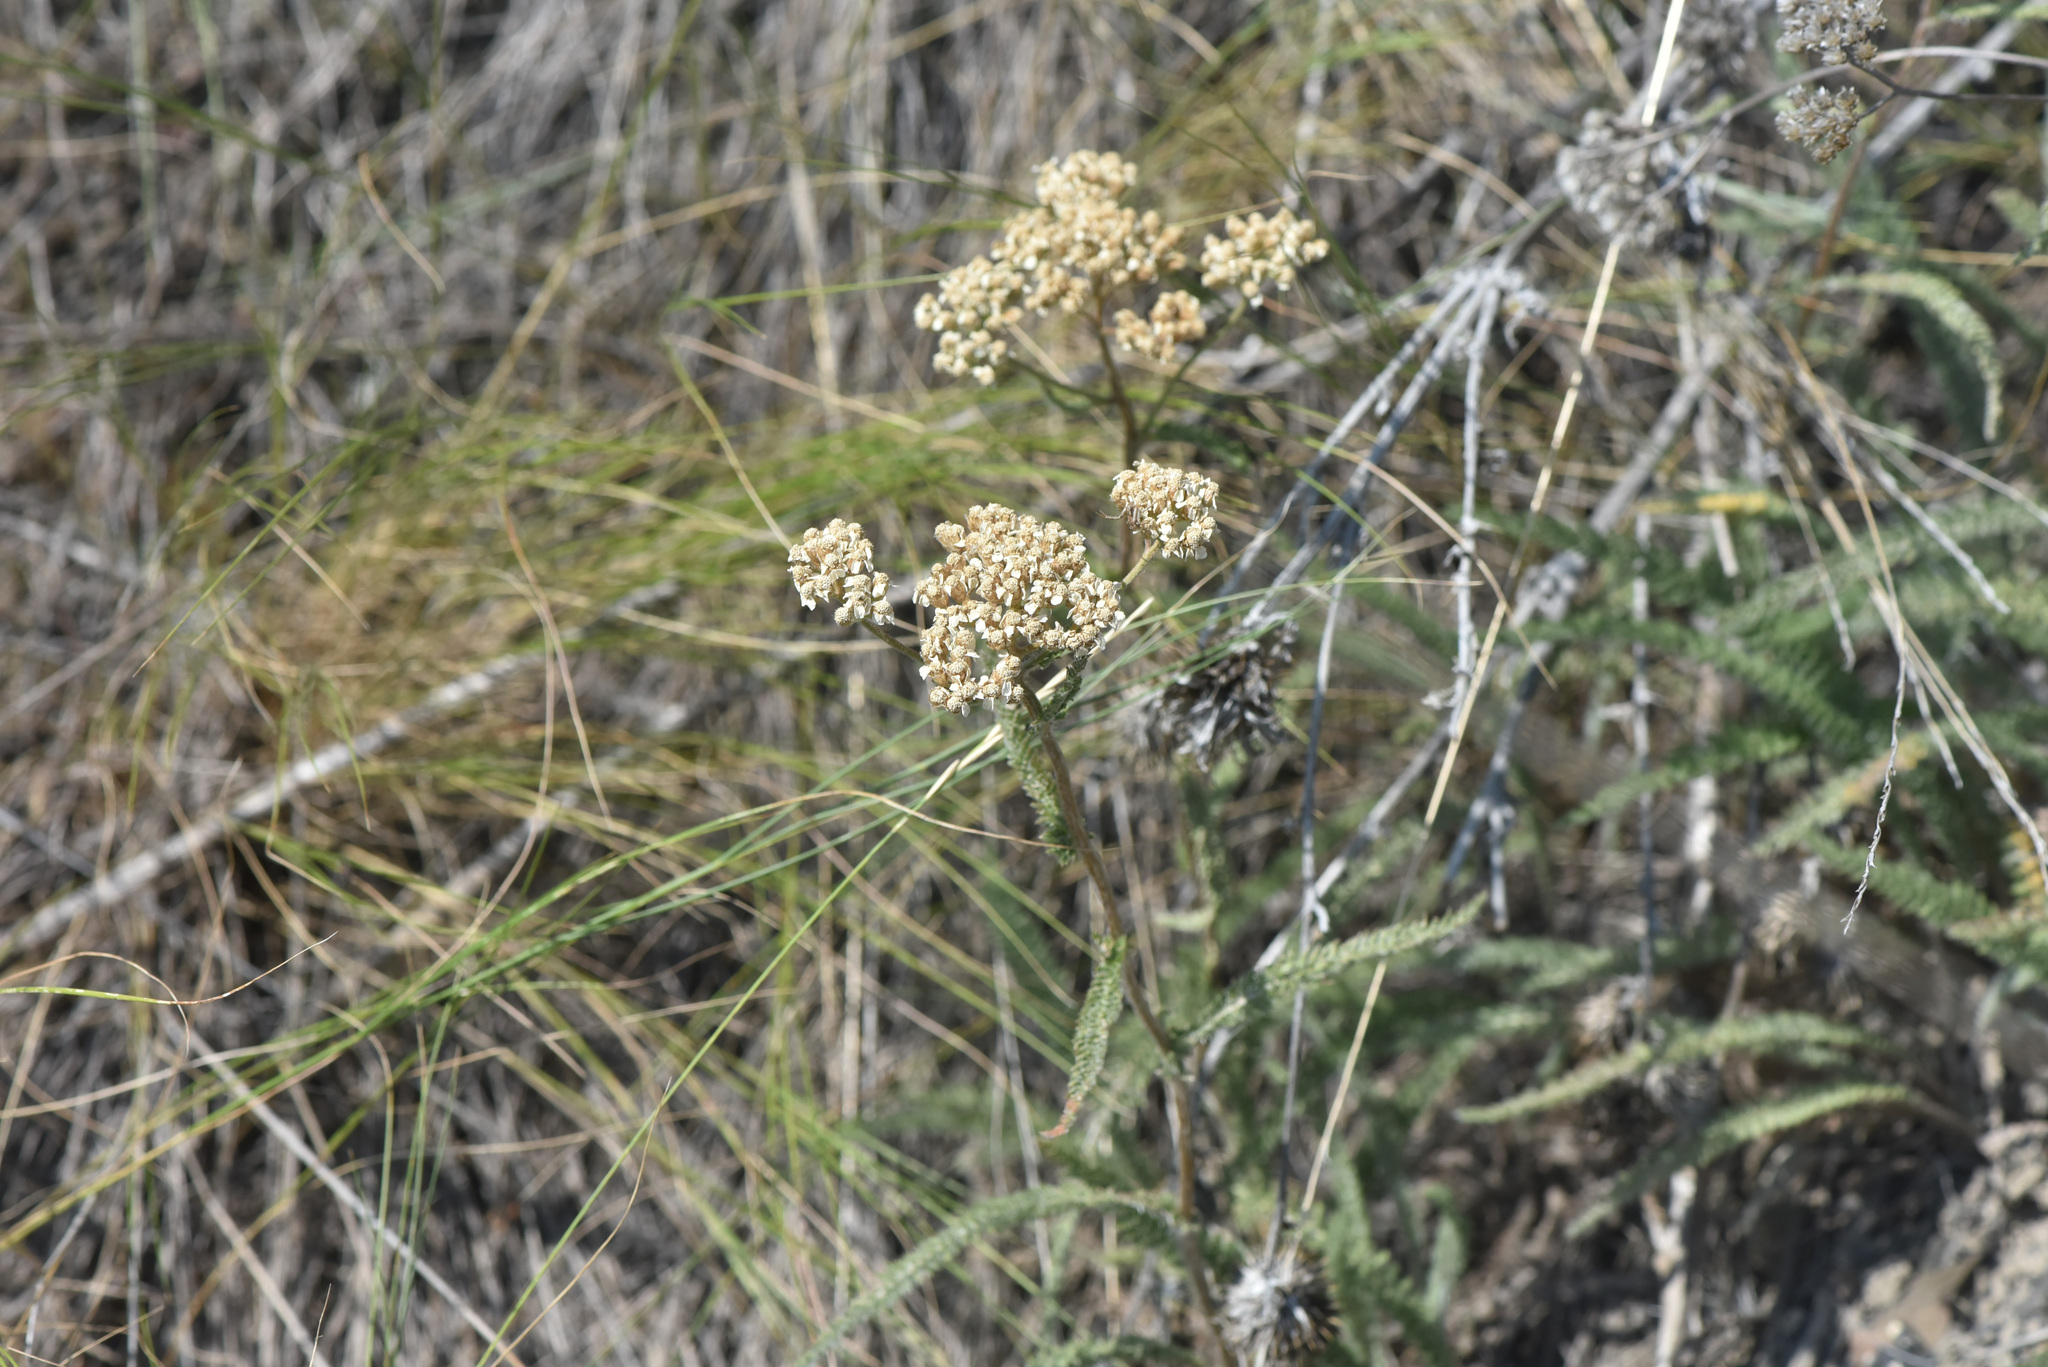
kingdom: Plantae
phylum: Tracheophyta
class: Magnoliopsida
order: Asterales
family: Asteraceae
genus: Achillea
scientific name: Achillea millefolium
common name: Yarrow
